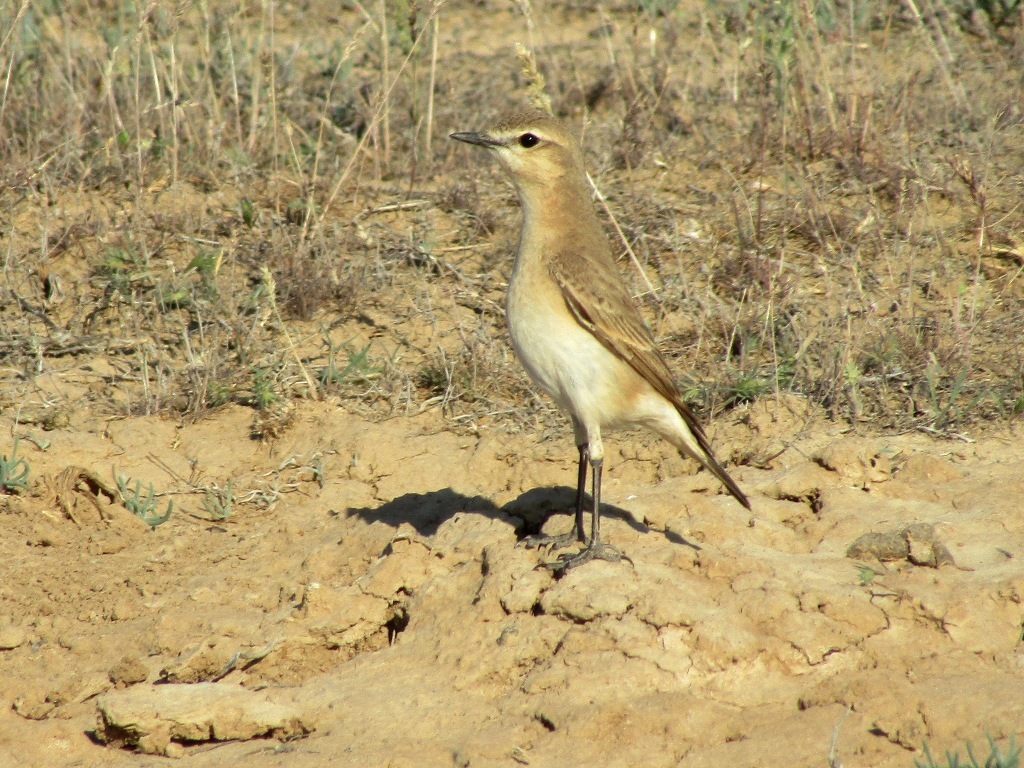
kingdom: Animalia
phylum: Chordata
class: Aves
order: Passeriformes
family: Muscicapidae
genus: Oenanthe
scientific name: Oenanthe isabellina
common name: Isabelline wheatear
